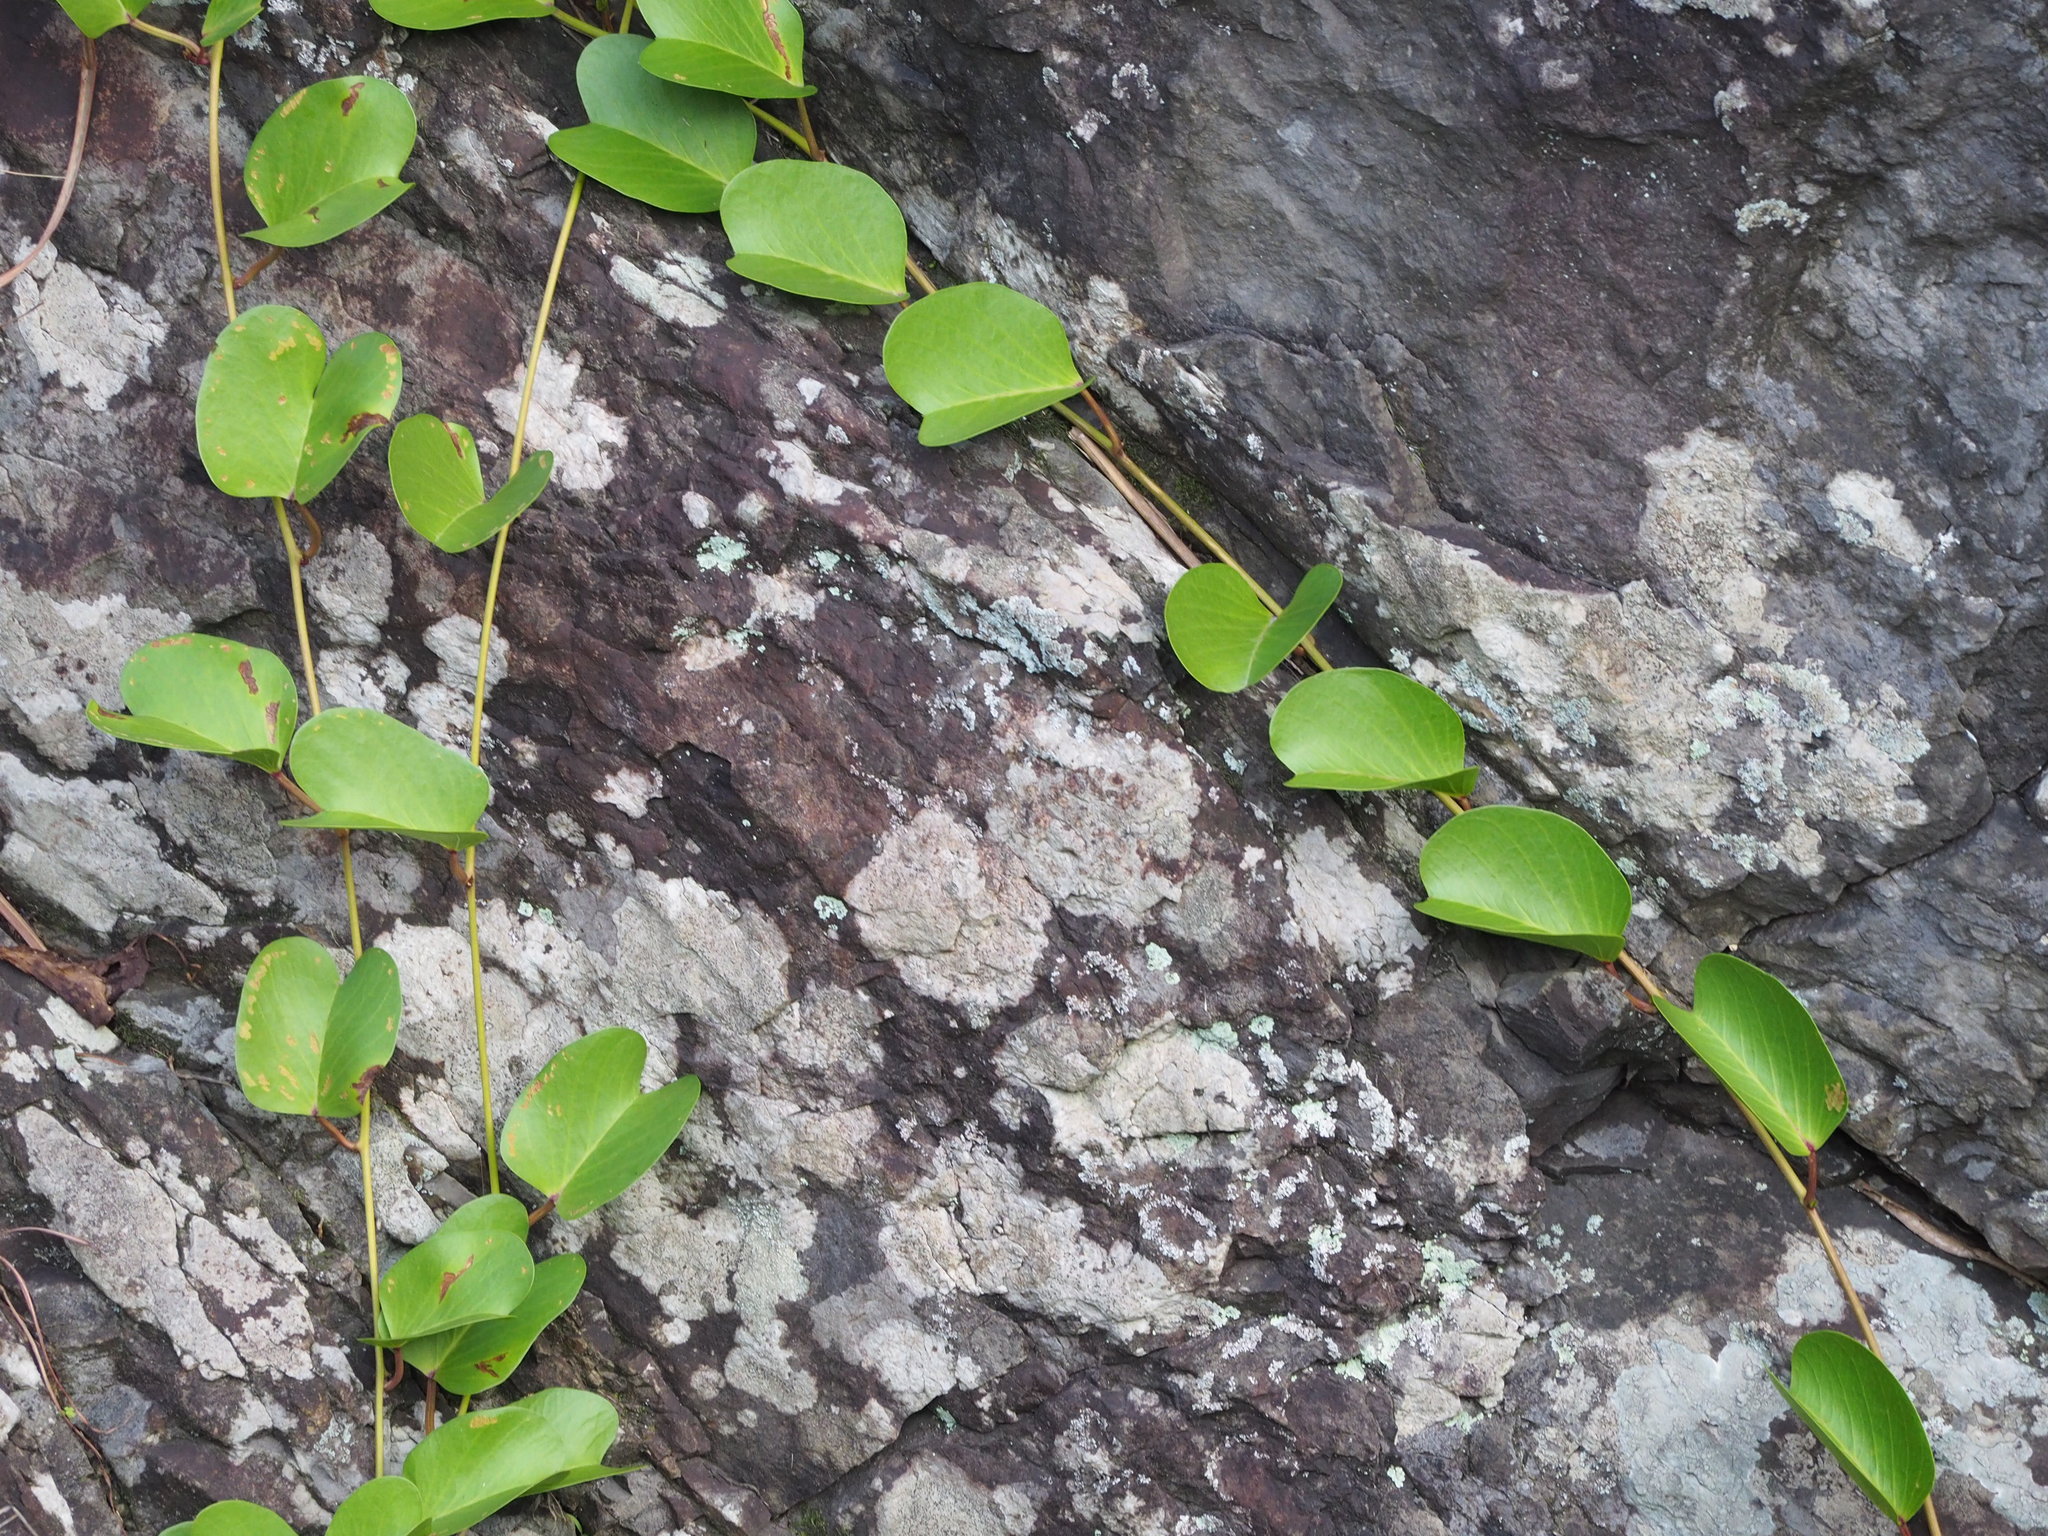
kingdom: Plantae
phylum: Tracheophyta
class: Magnoliopsida
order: Solanales
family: Convolvulaceae
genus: Ipomoea
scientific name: Ipomoea pes-caprae
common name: Beach morning glory
